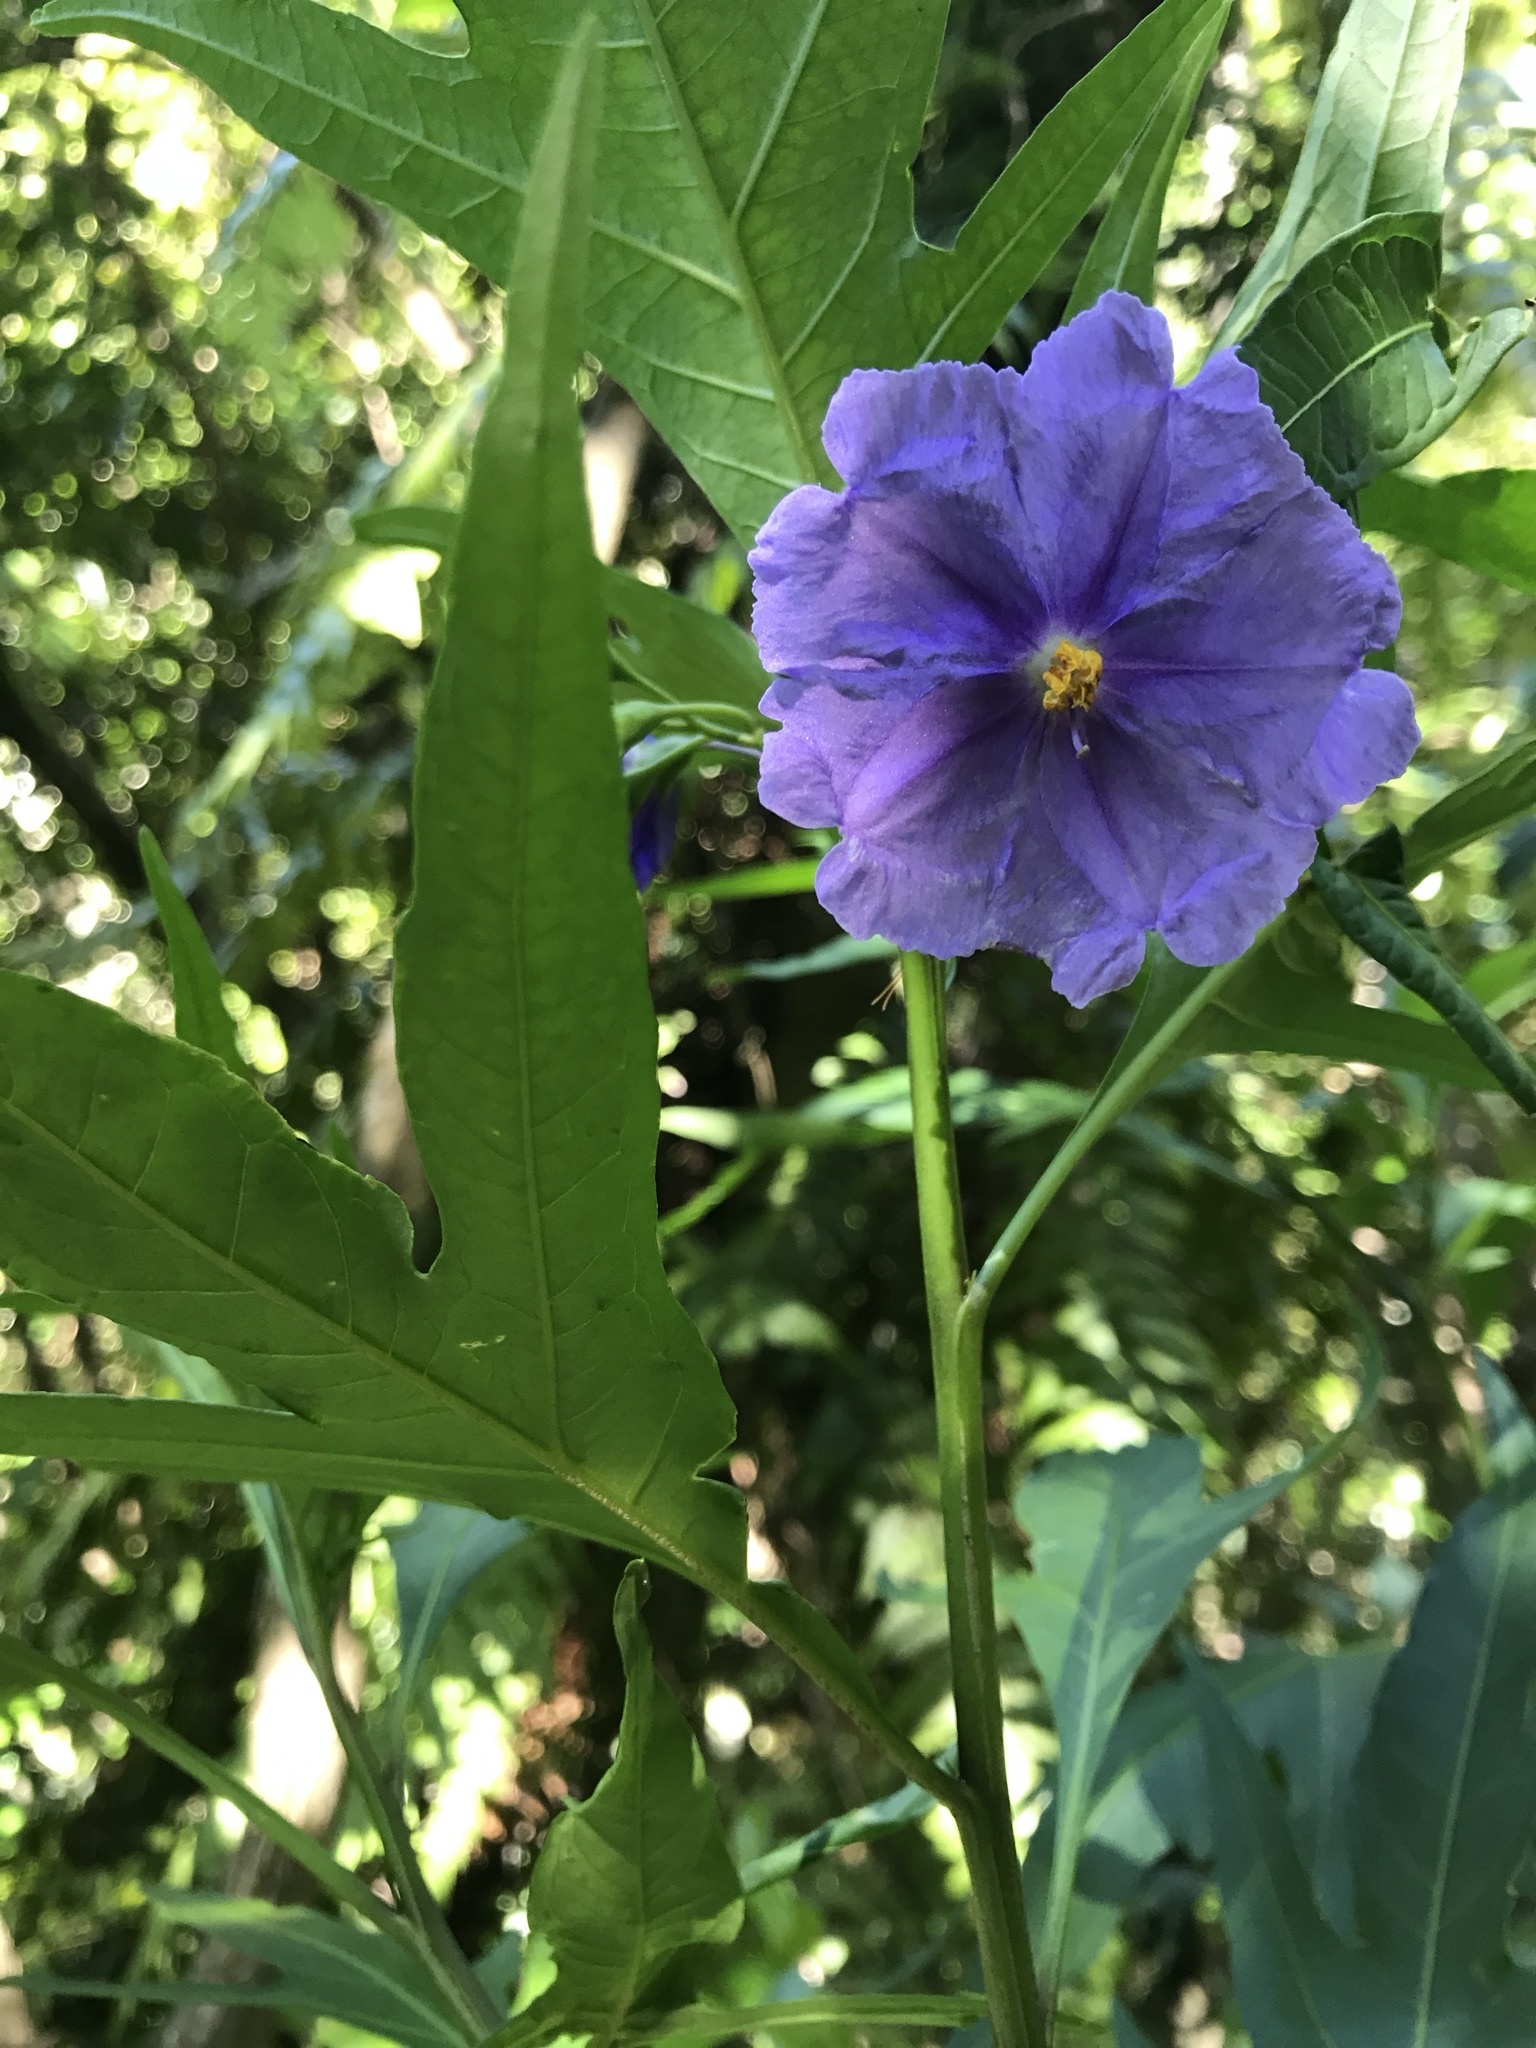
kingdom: Plantae
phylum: Tracheophyta
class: Magnoliopsida
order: Solanales
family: Solanaceae
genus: Solanum
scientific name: Solanum laciniatum
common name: Kangaroo-apple
